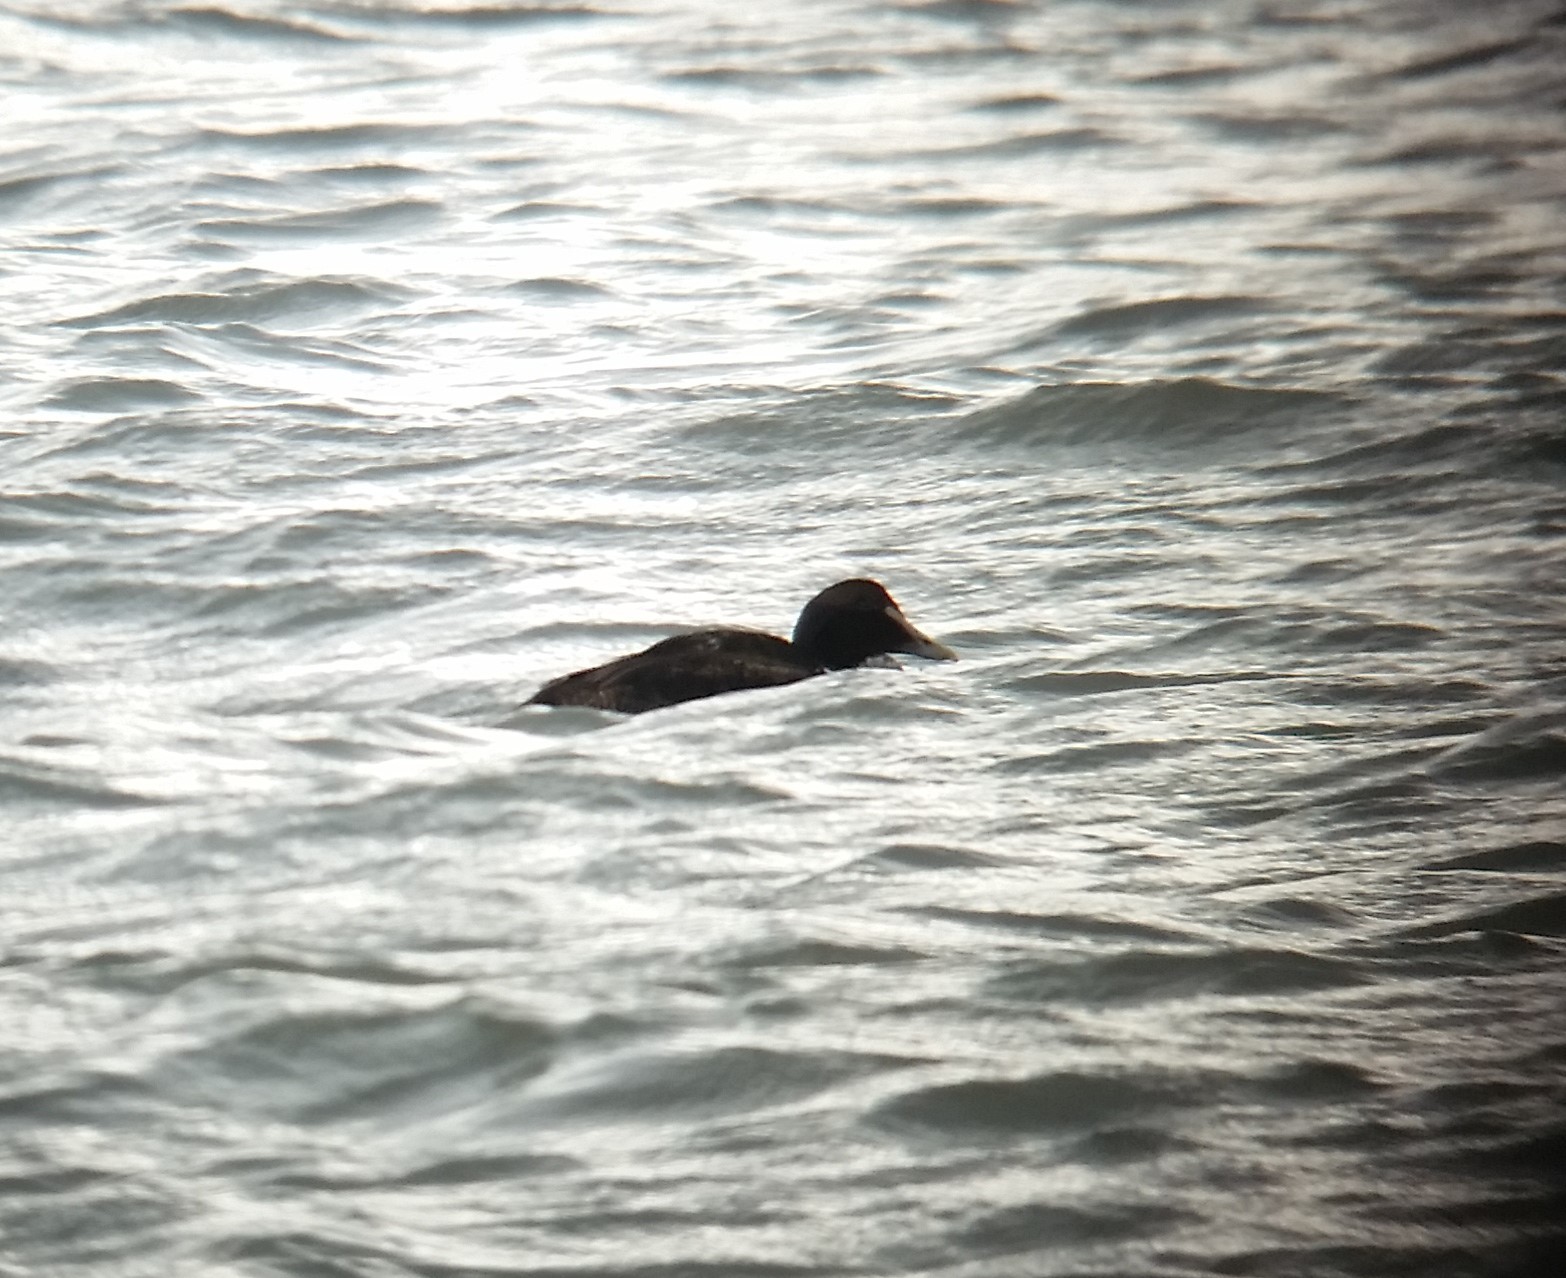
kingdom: Animalia
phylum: Chordata
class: Aves
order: Anseriformes
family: Anatidae
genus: Somateria
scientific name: Somateria mollissima
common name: Common eider
